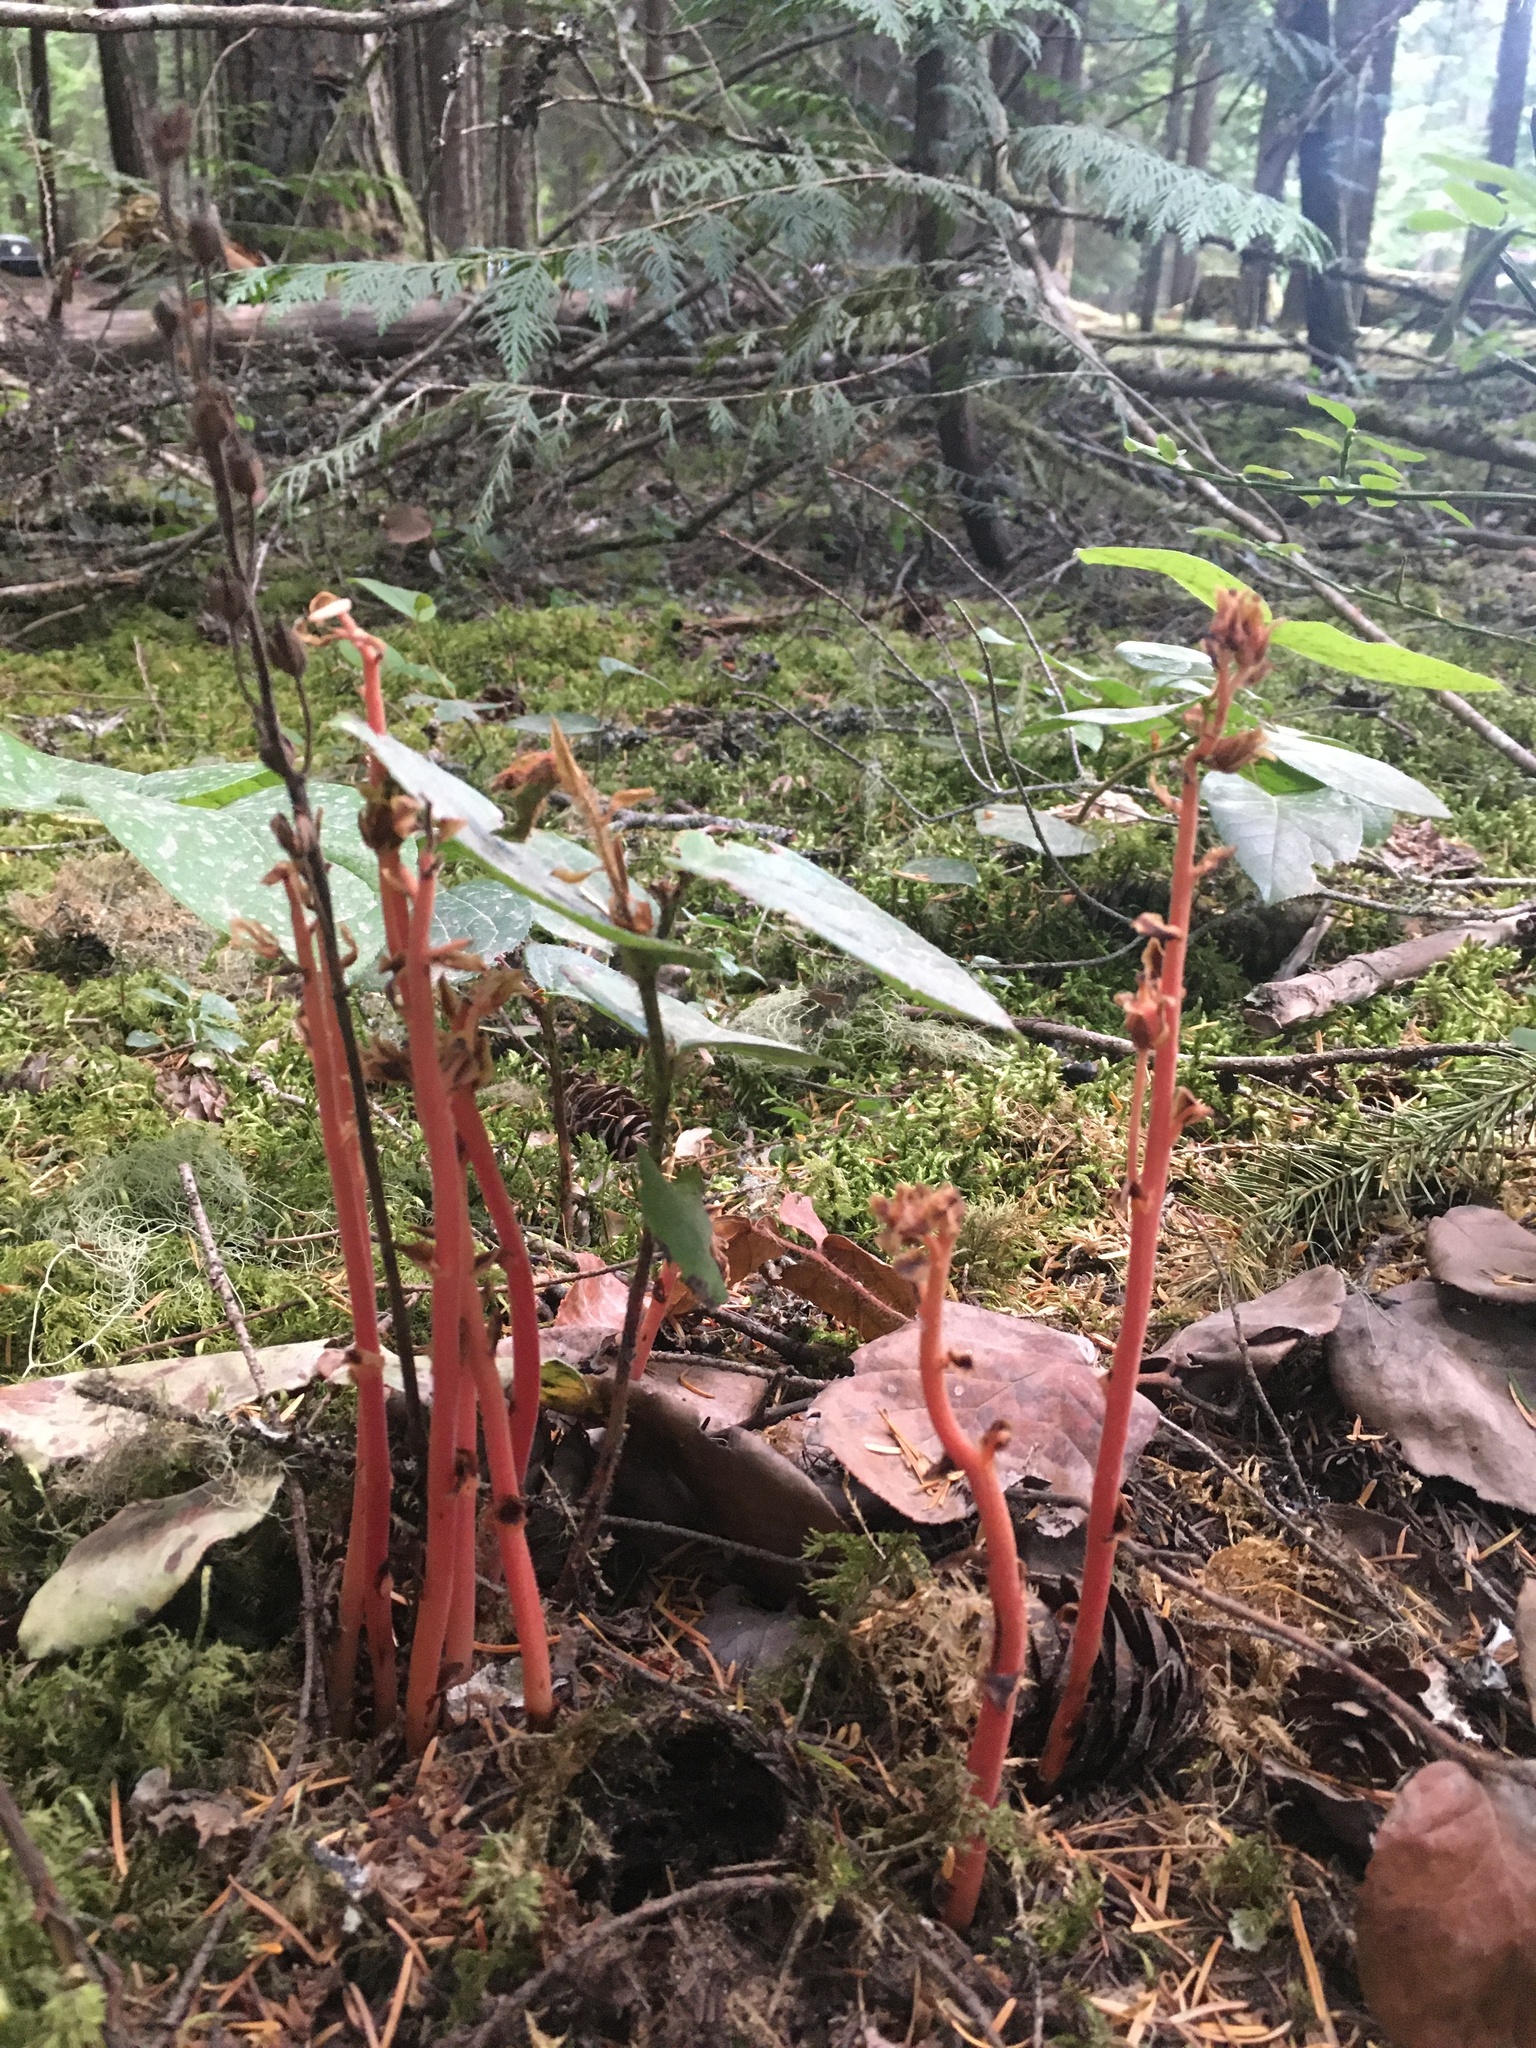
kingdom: Plantae
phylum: Tracheophyta
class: Magnoliopsida
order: Ericales
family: Ericaceae
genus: Hypopitys
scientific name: Hypopitys monotropa
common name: Yellow bird's-nest
